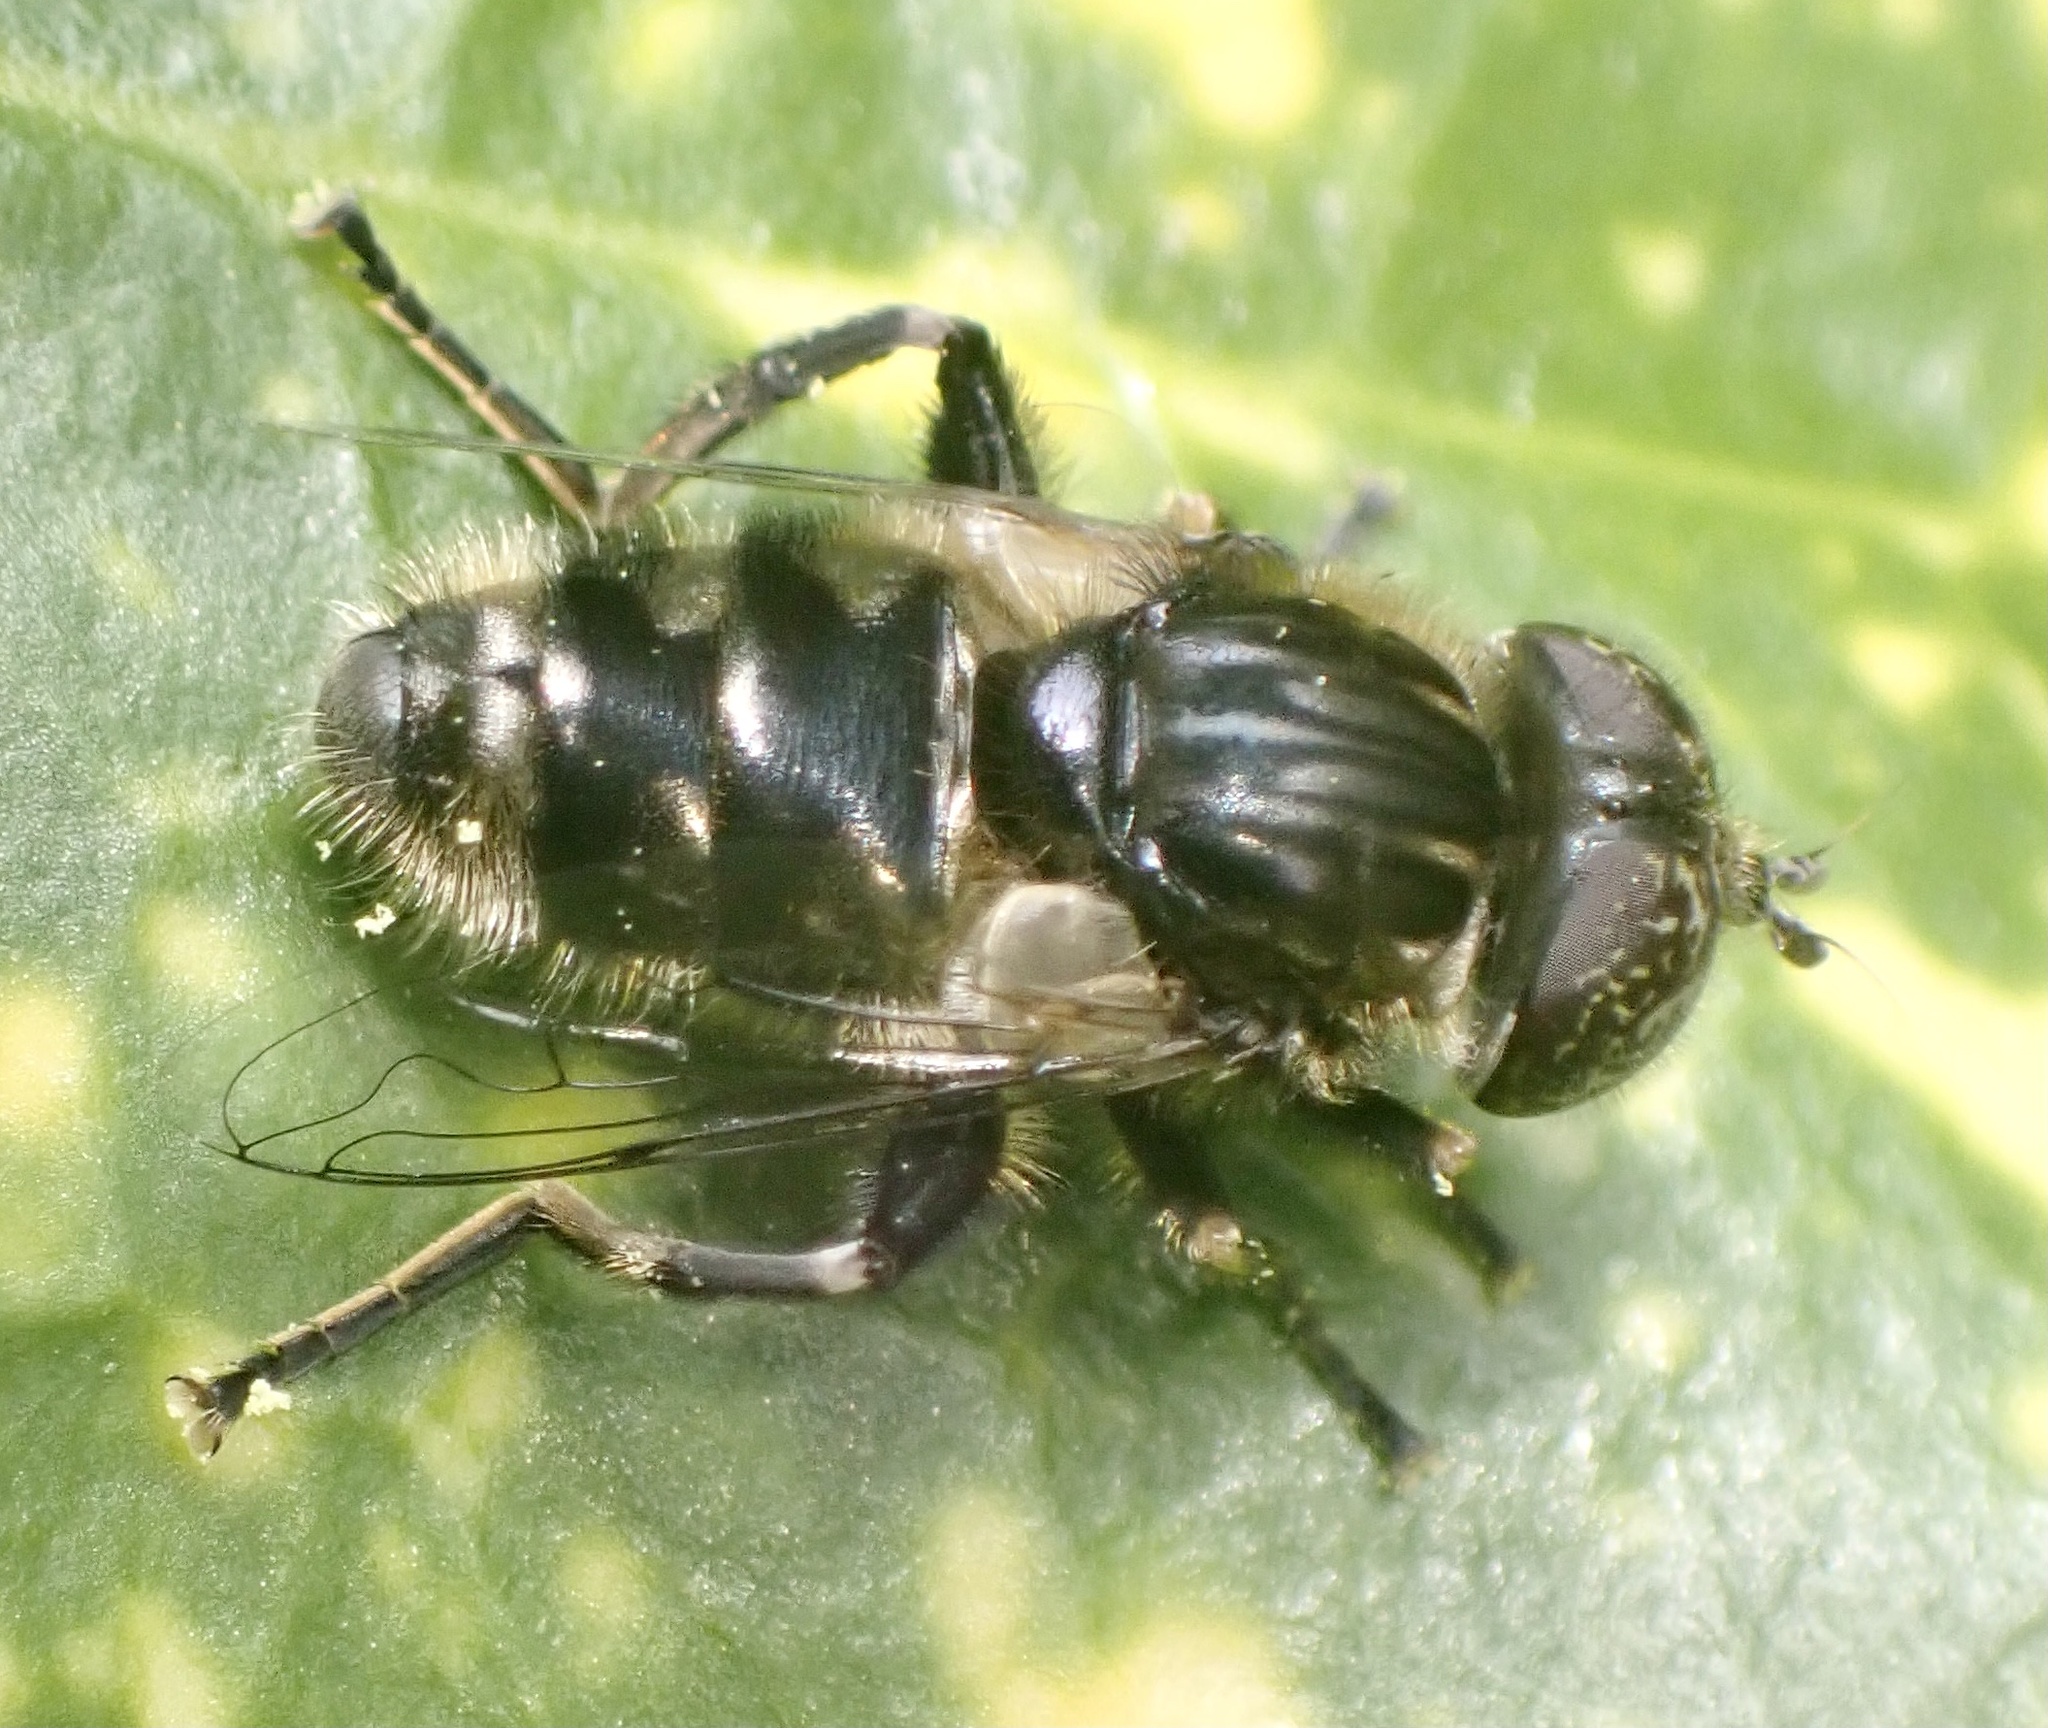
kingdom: Animalia
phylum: Arthropoda
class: Insecta
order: Diptera
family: Syrphidae
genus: Eristalinus
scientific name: Eristalinus sepulchralis
